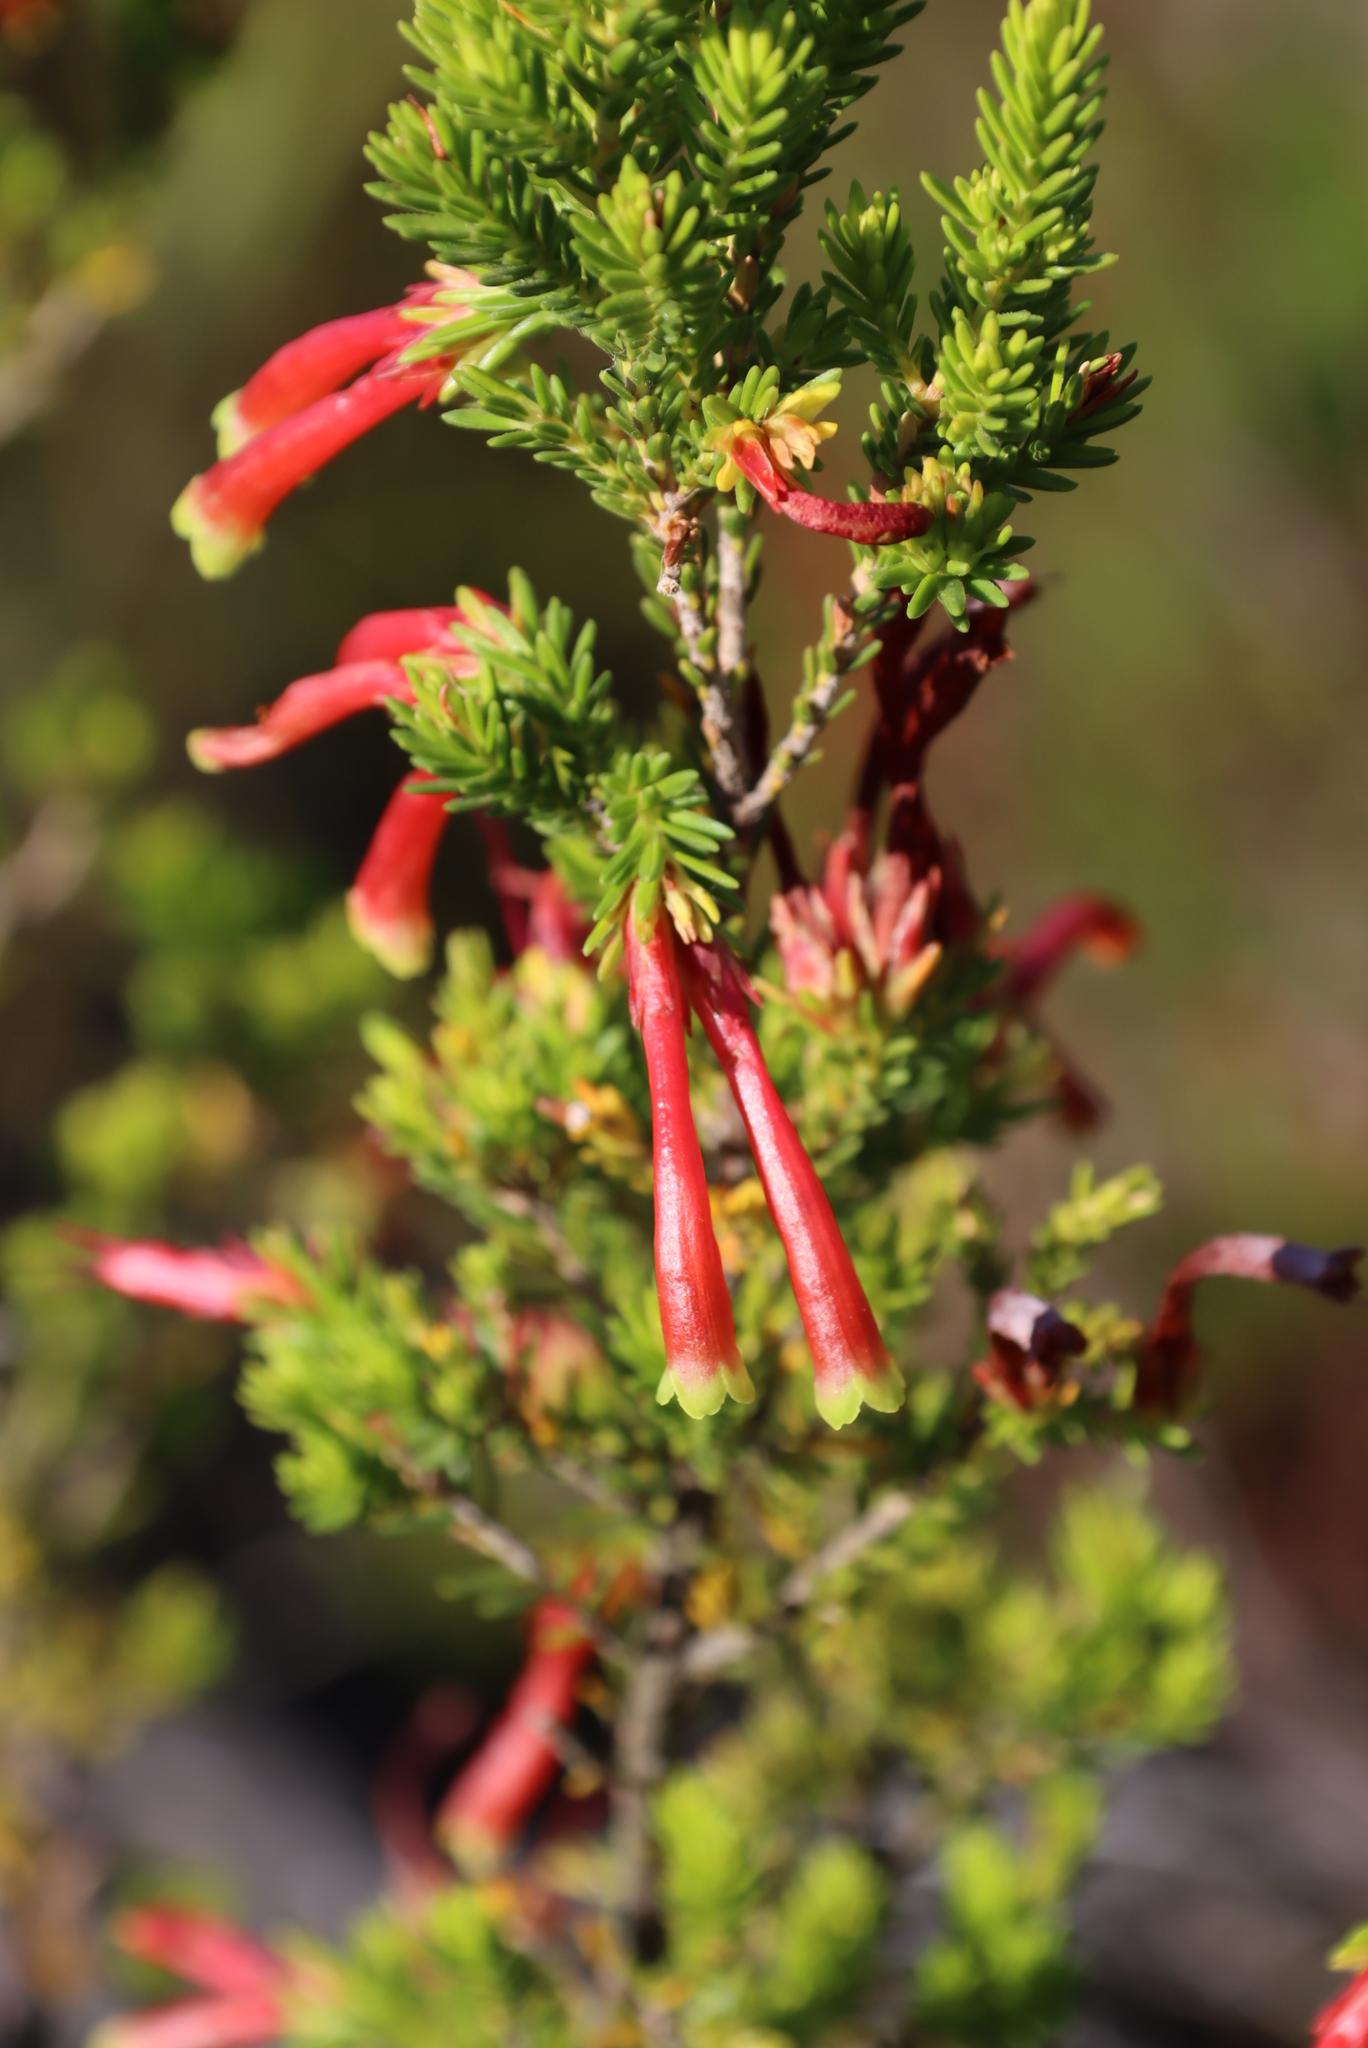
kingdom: Plantae
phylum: Tracheophyta
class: Magnoliopsida
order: Ericales
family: Ericaceae
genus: Erica
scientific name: Erica discolor
